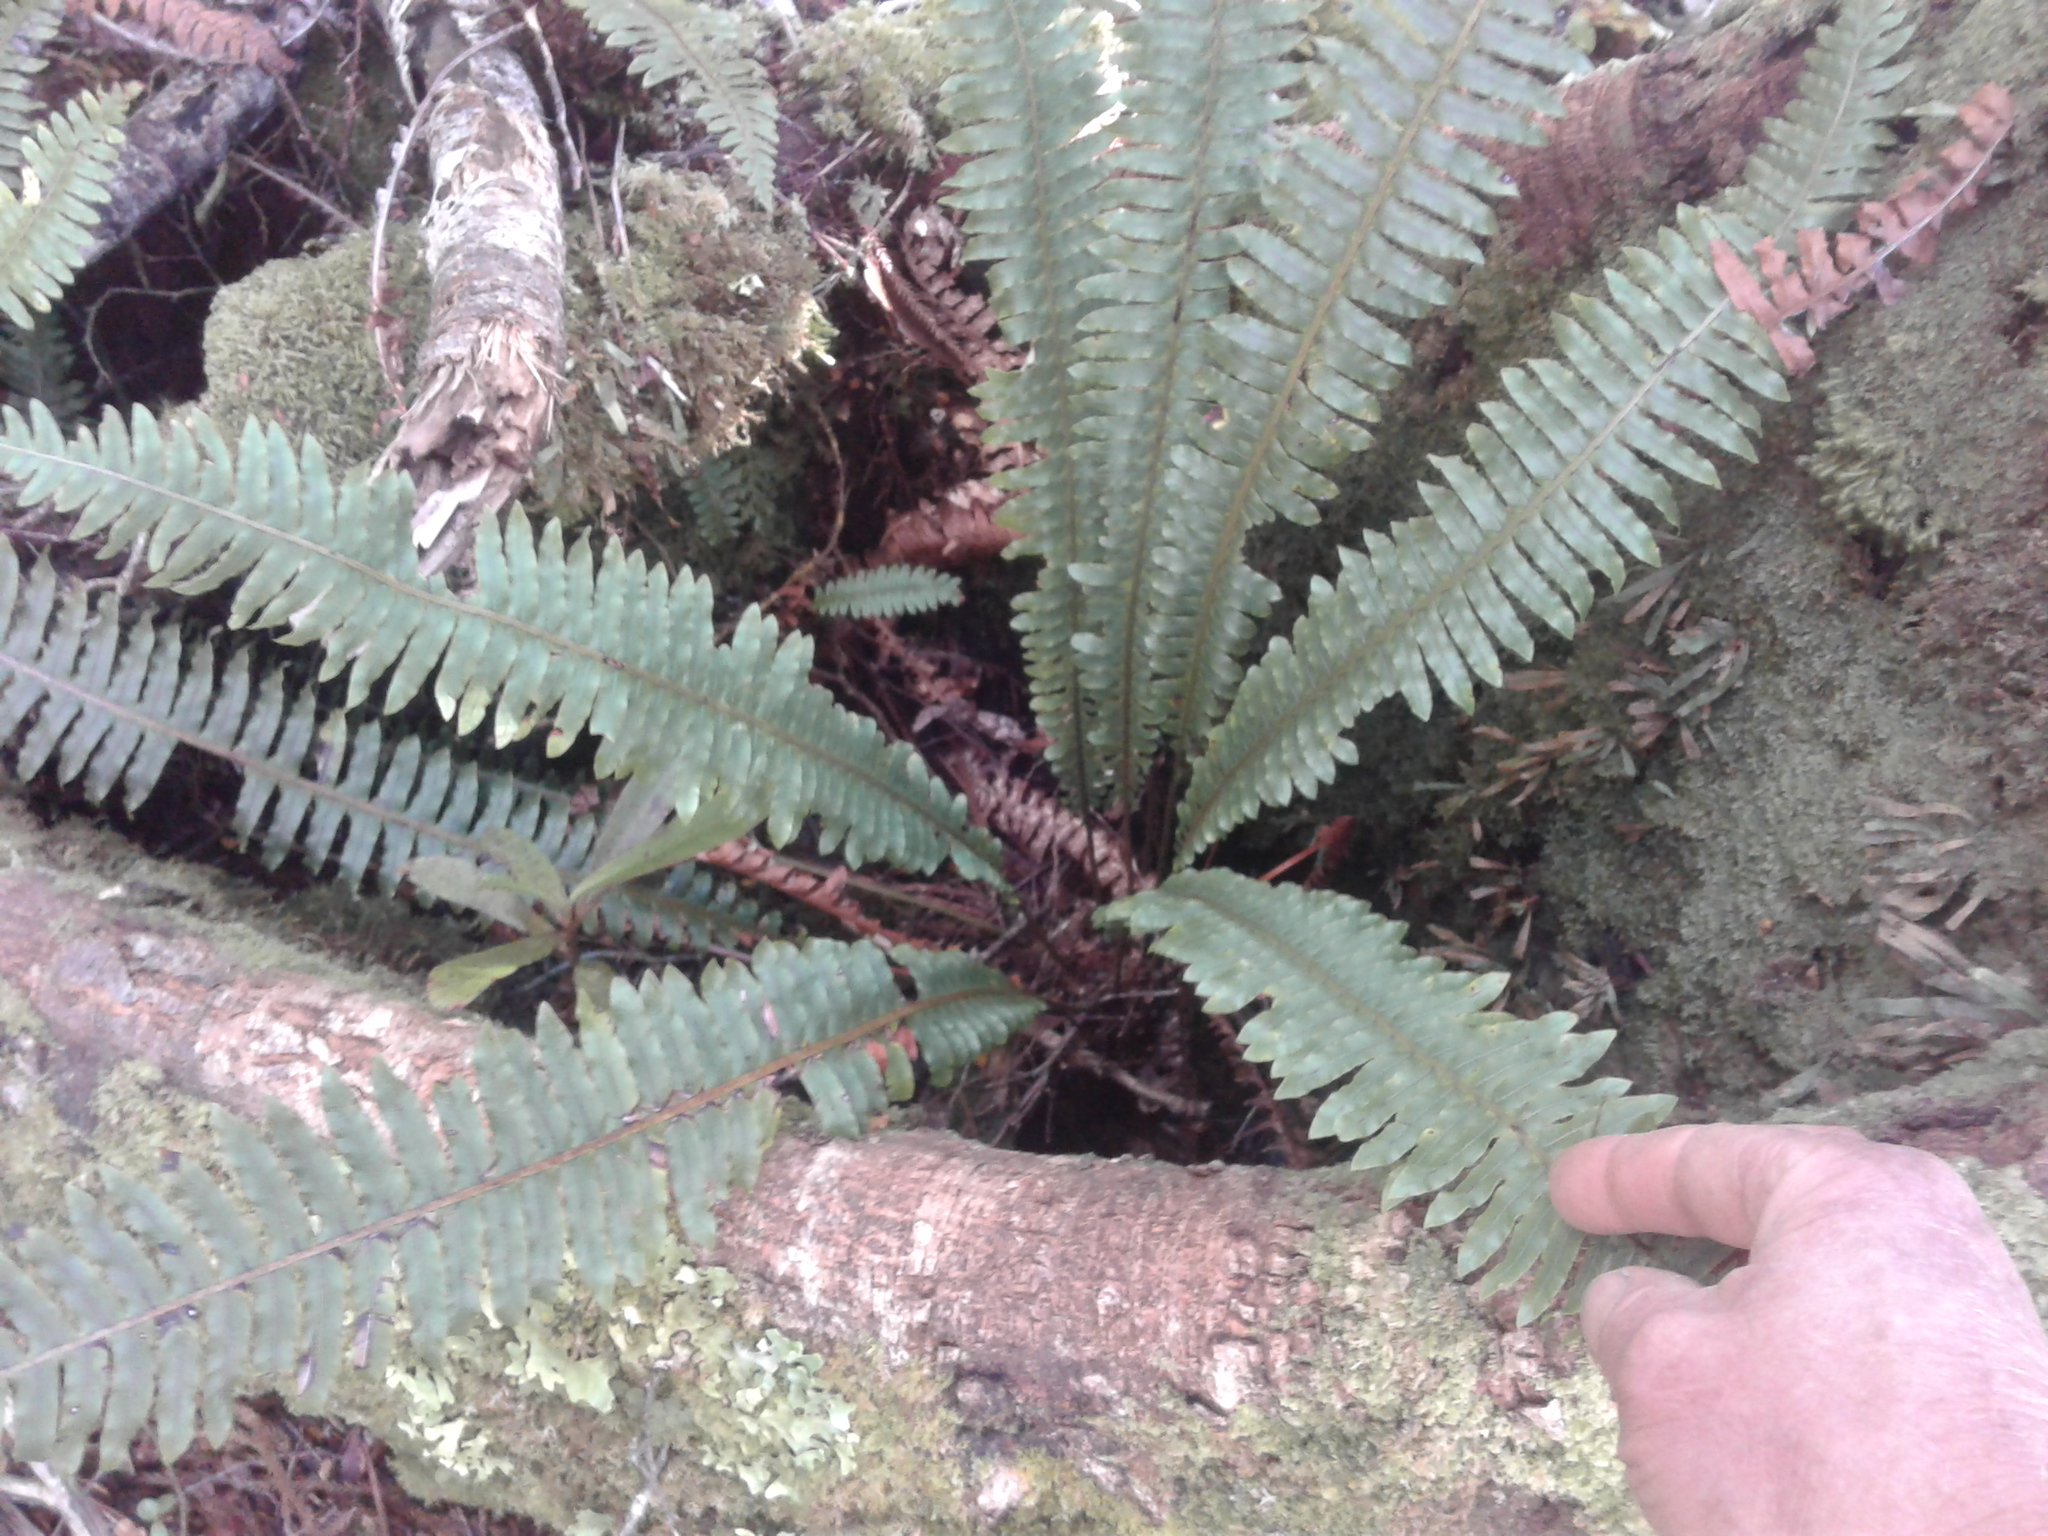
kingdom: Plantae
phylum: Tracheophyta
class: Polypodiopsida
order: Polypodiales
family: Blechnaceae
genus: Lomaria
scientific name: Lomaria discolor
